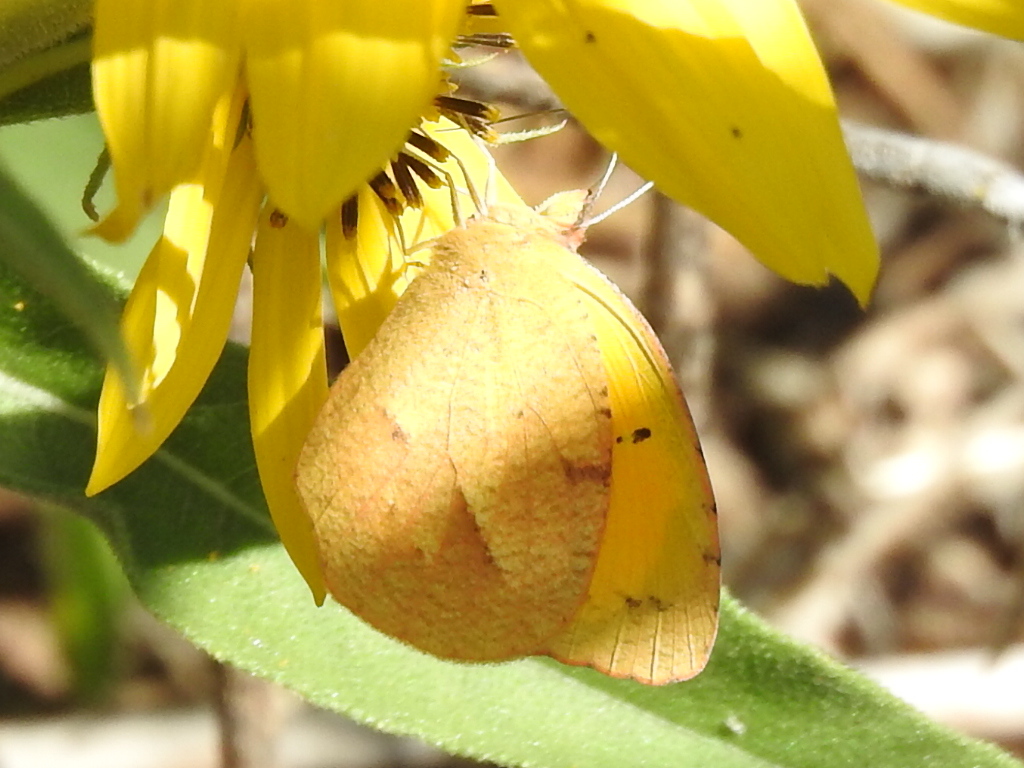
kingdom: Animalia
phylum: Arthropoda
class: Insecta
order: Lepidoptera
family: Pieridae
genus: Abaeis
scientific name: Abaeis nicippe
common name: Sleepy orange
